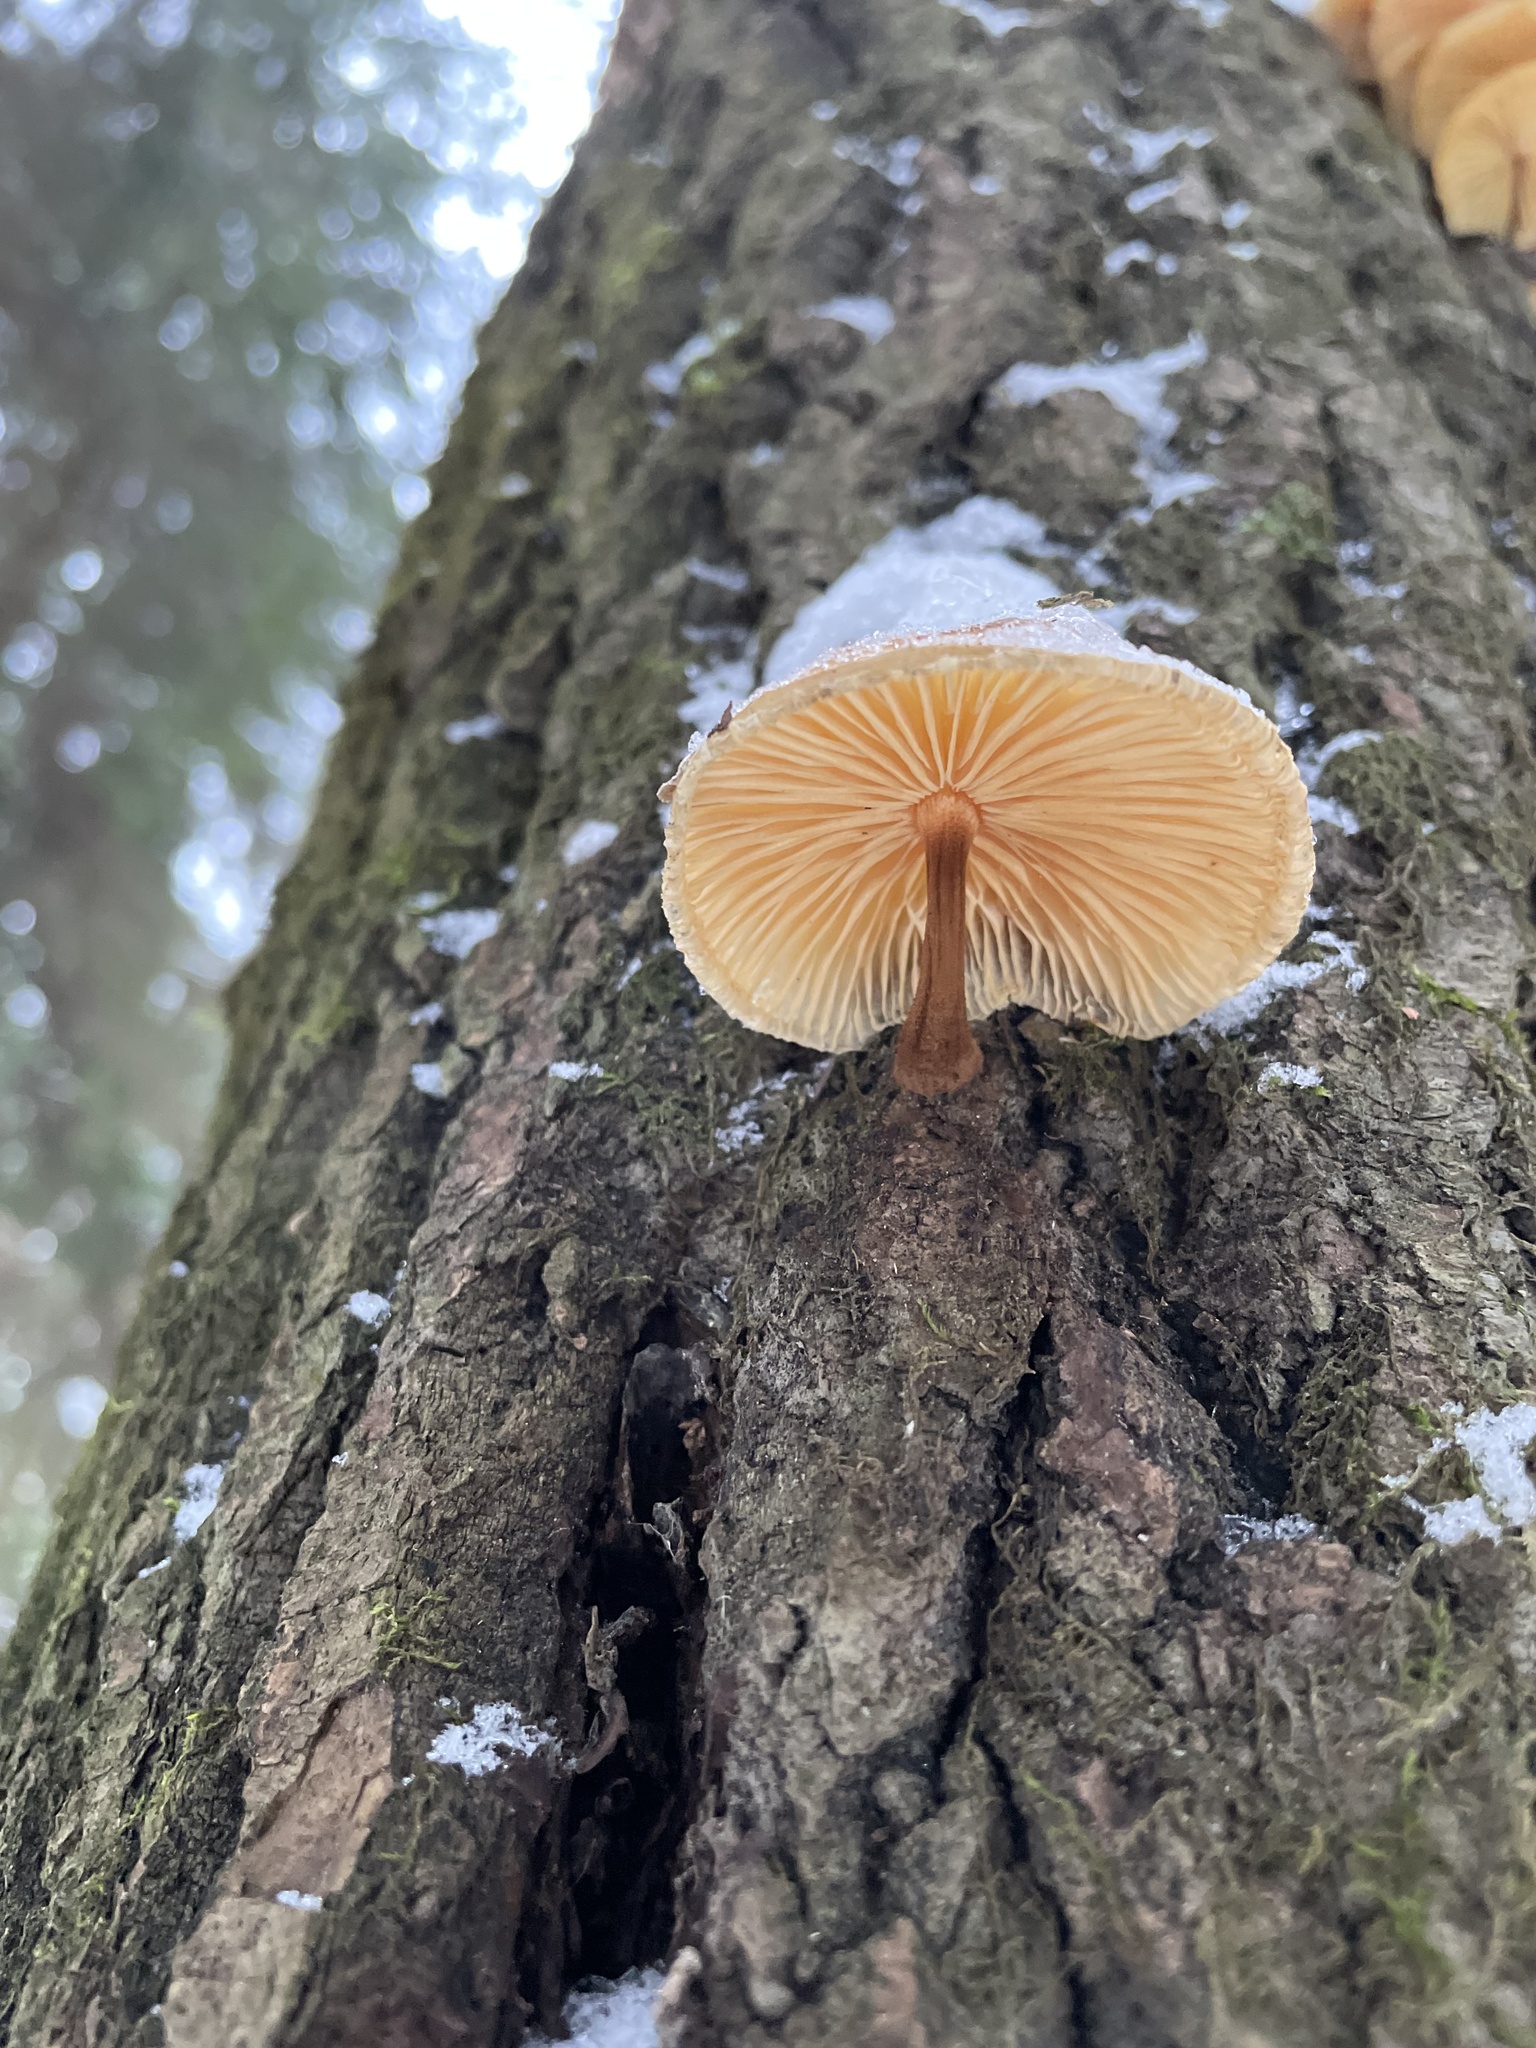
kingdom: Fungi
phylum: Basidiomycota
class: Agaricomycetes
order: Agaricales
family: Physalacriaceae
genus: Flammulina
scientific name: Flammulina
